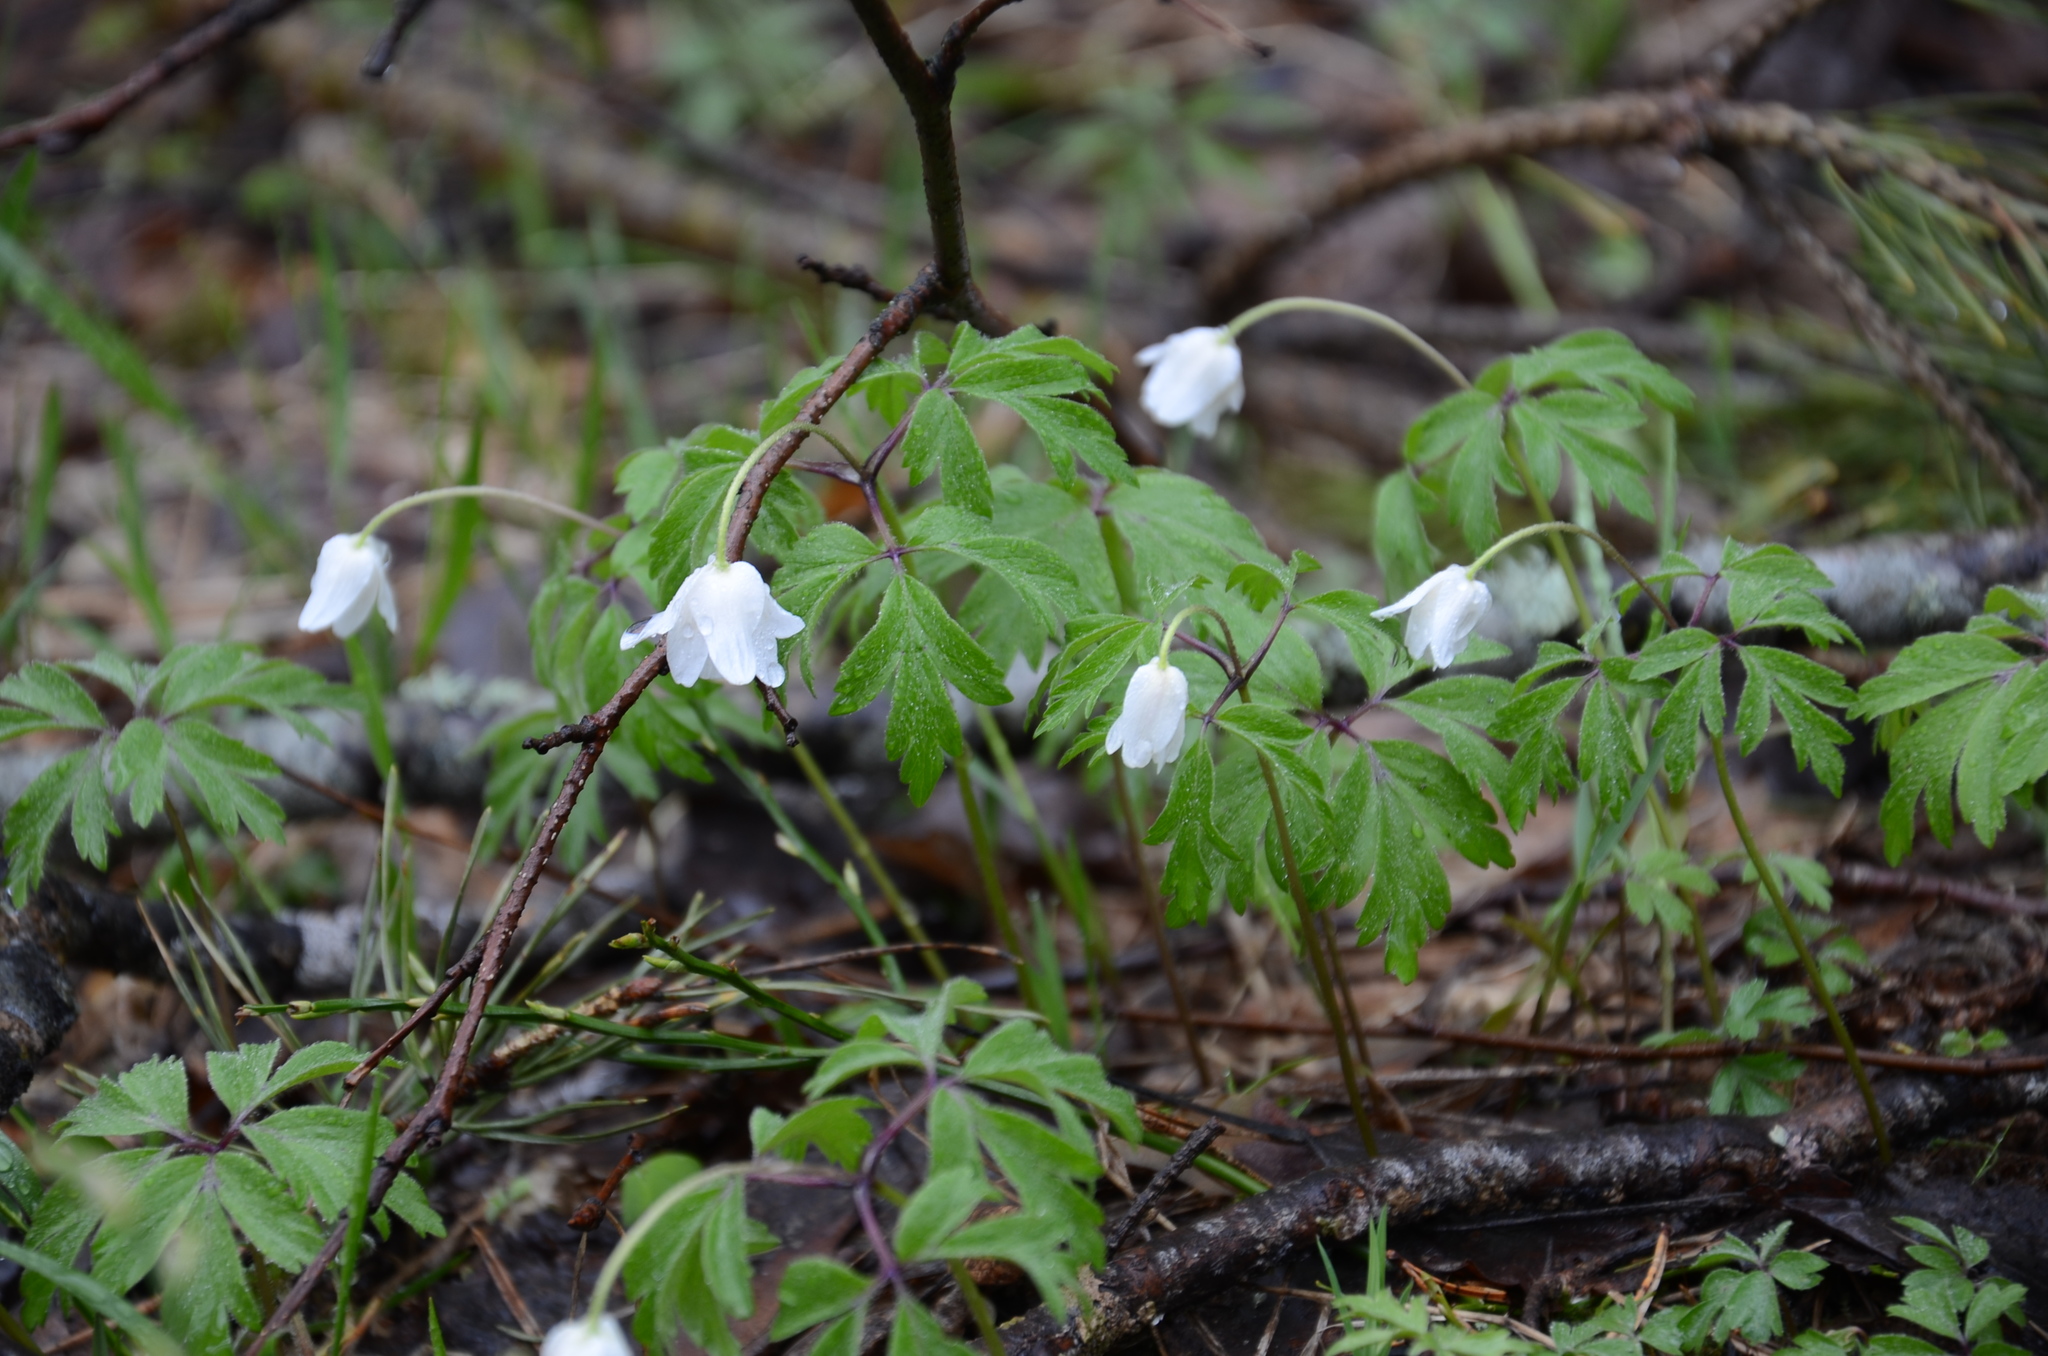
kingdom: Plantae
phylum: Tracheophyta
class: Magnoliopsida
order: Ranunculales
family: Ranunculaceae
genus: Anemone
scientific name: Anemone nemorosa
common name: Wood anemone
